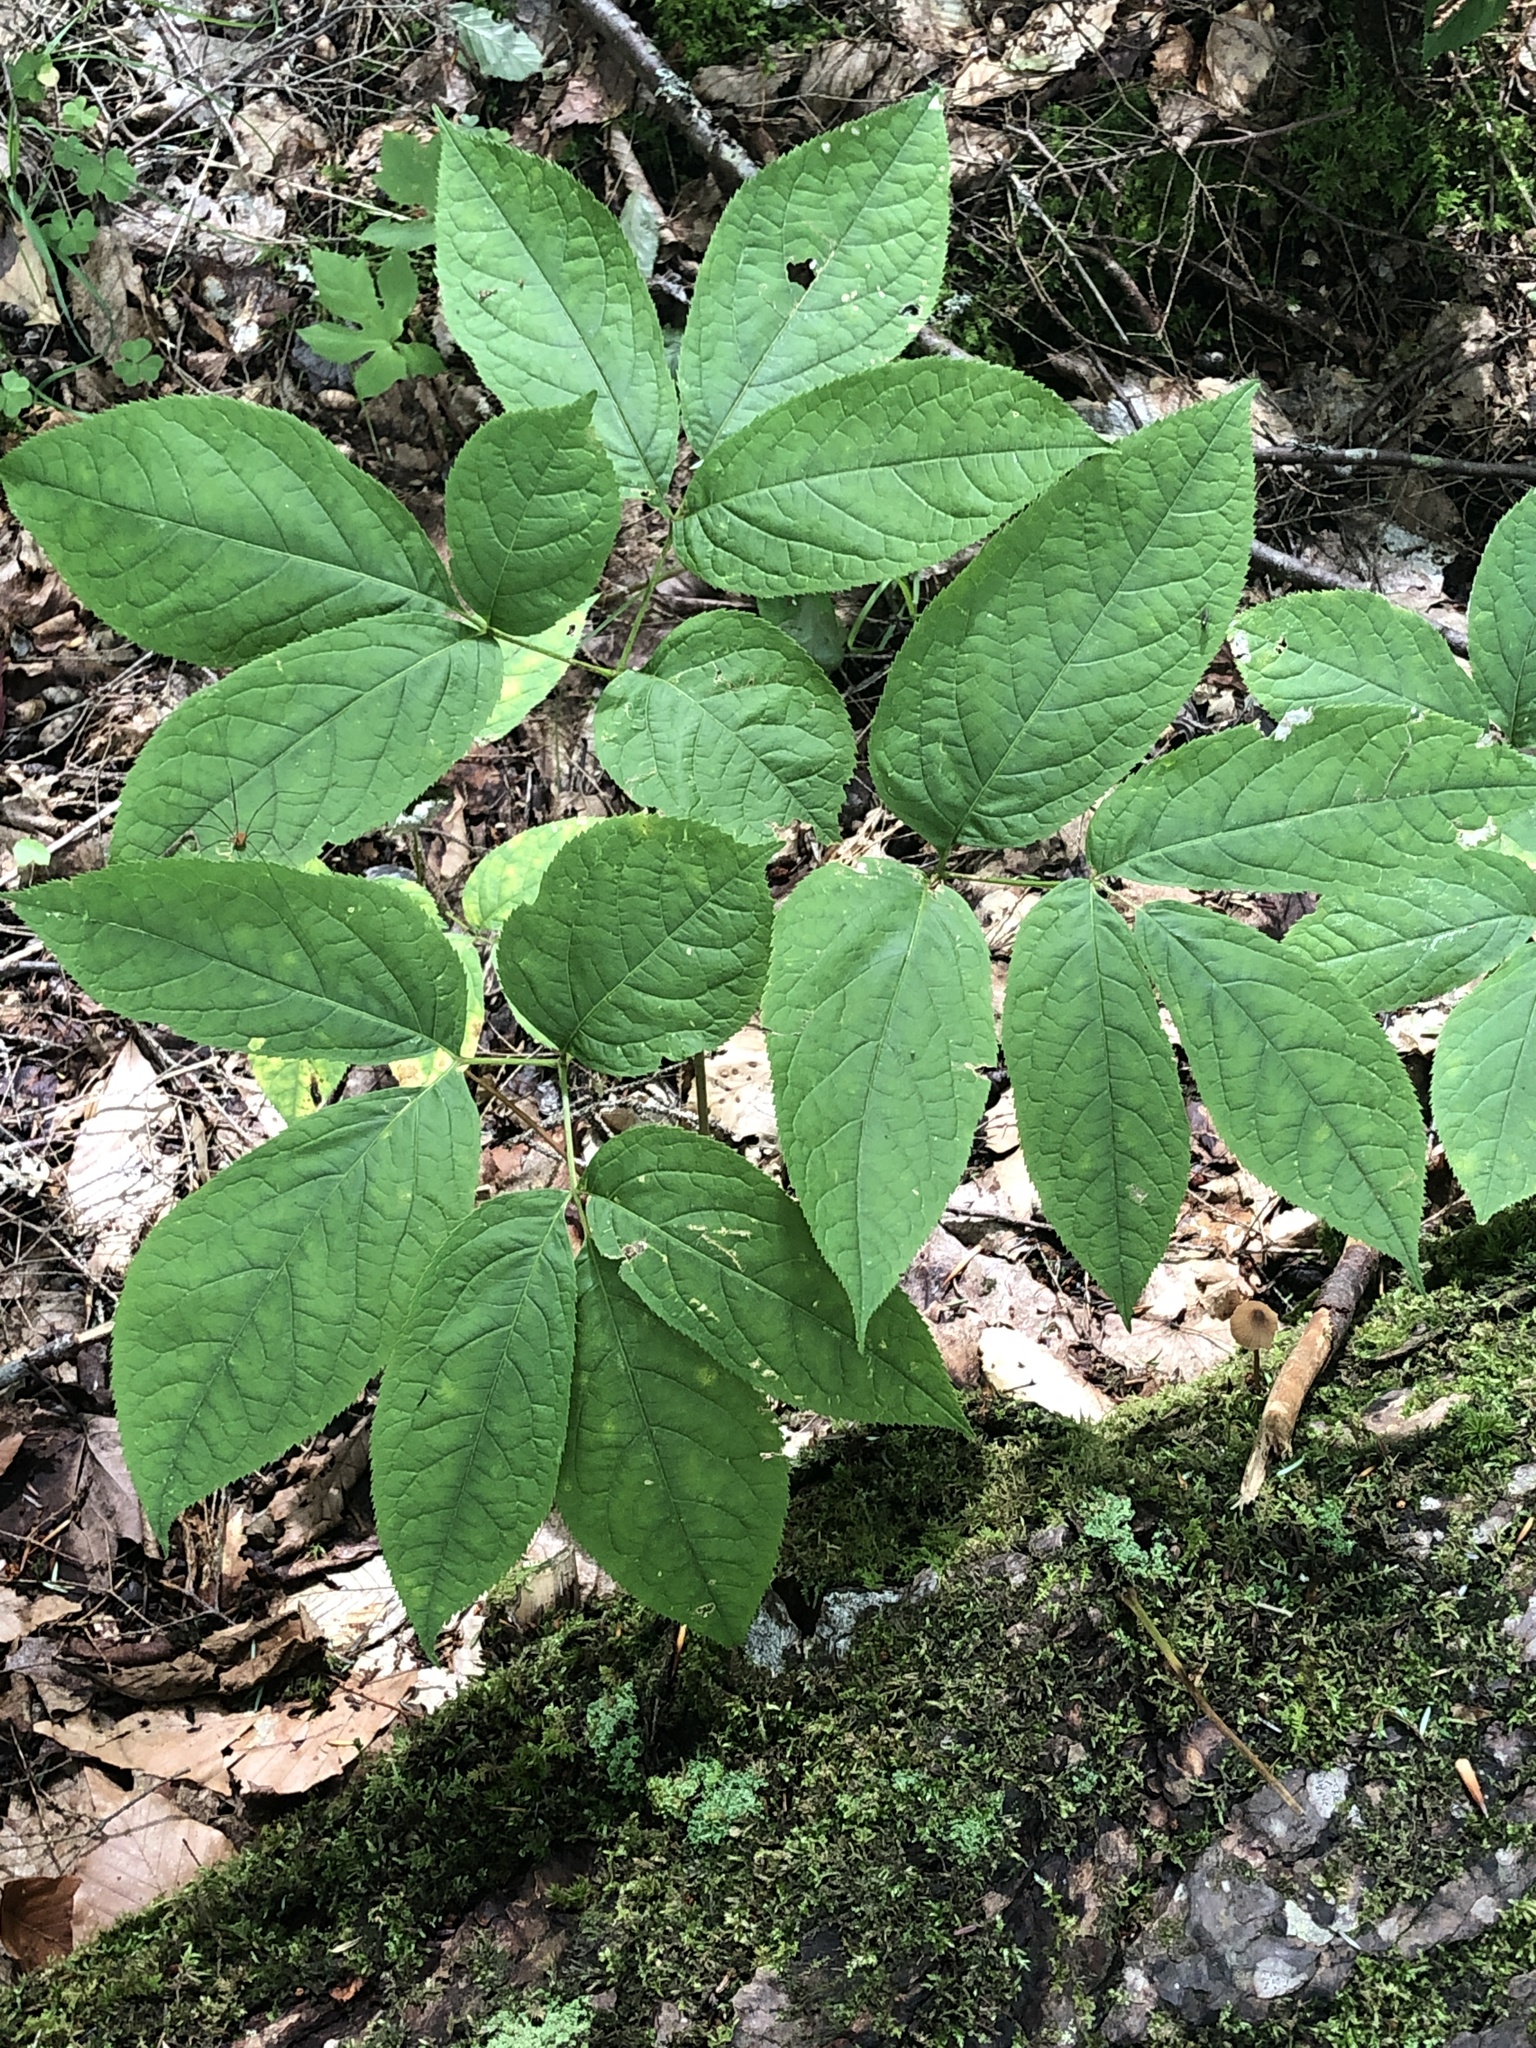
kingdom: Plantae
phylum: Tracheophyta
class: Magnoliopsida
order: Apiales
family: Araliaceae
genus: Aralia
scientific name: Aralia nudicaulis
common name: Wild sarsaparilla
